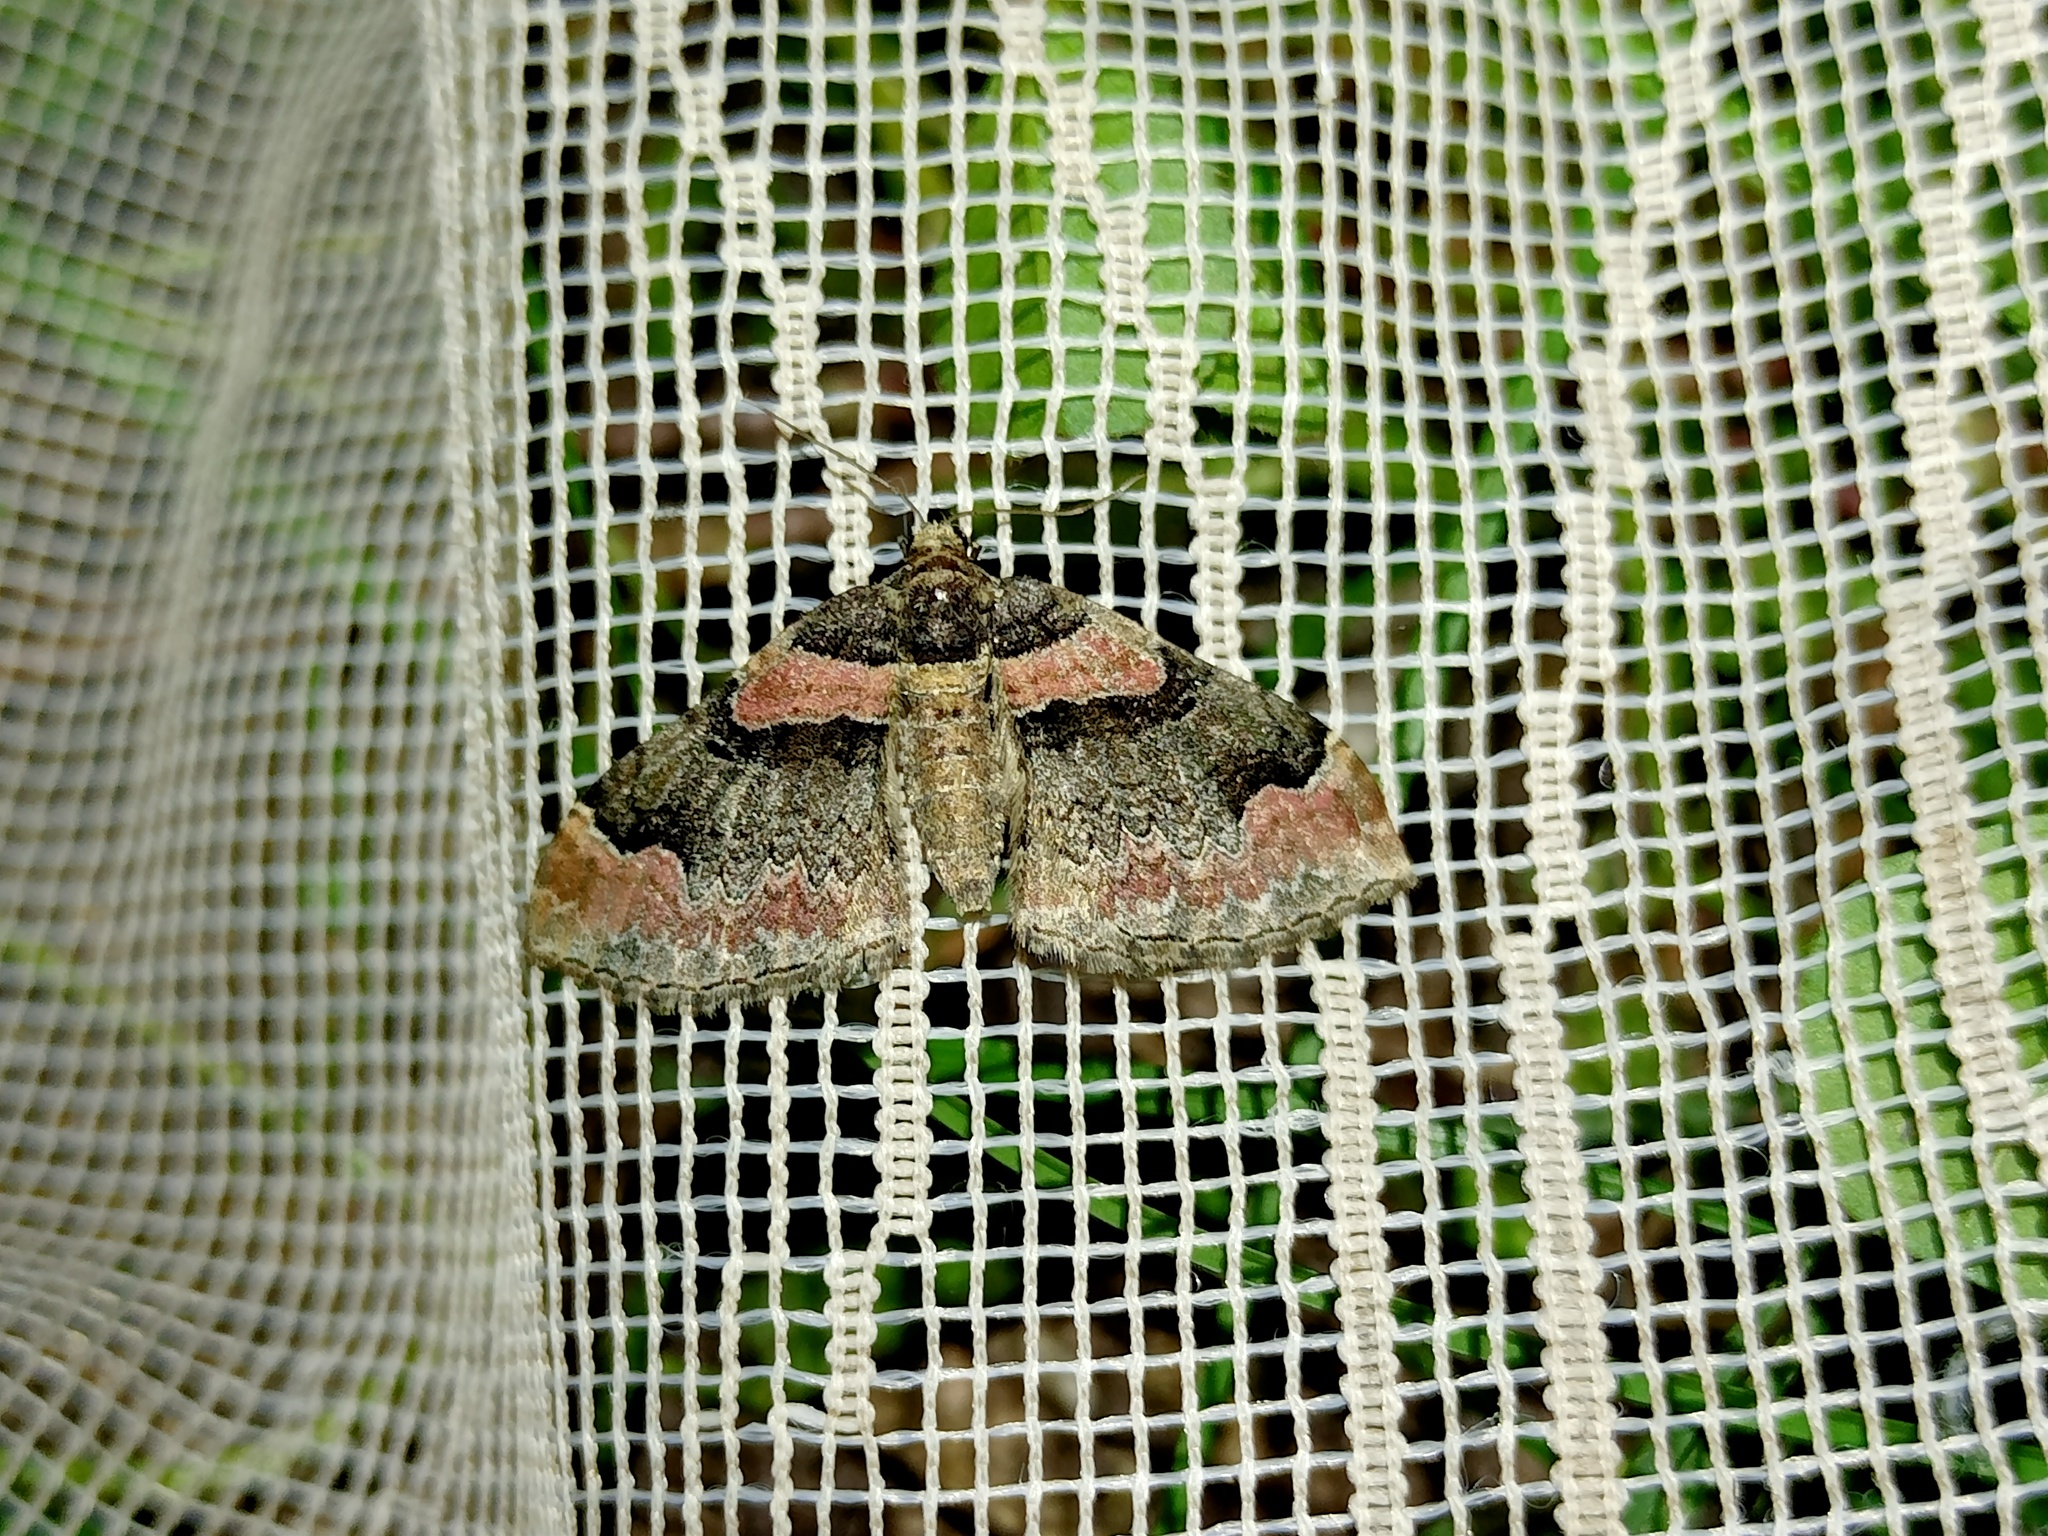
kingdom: Animalia
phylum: Arthropoda
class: Insecta
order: Lepidoptera
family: Geometridae
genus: Catarhoe
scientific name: Catarhoe rubidata
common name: Ruddy carpet
